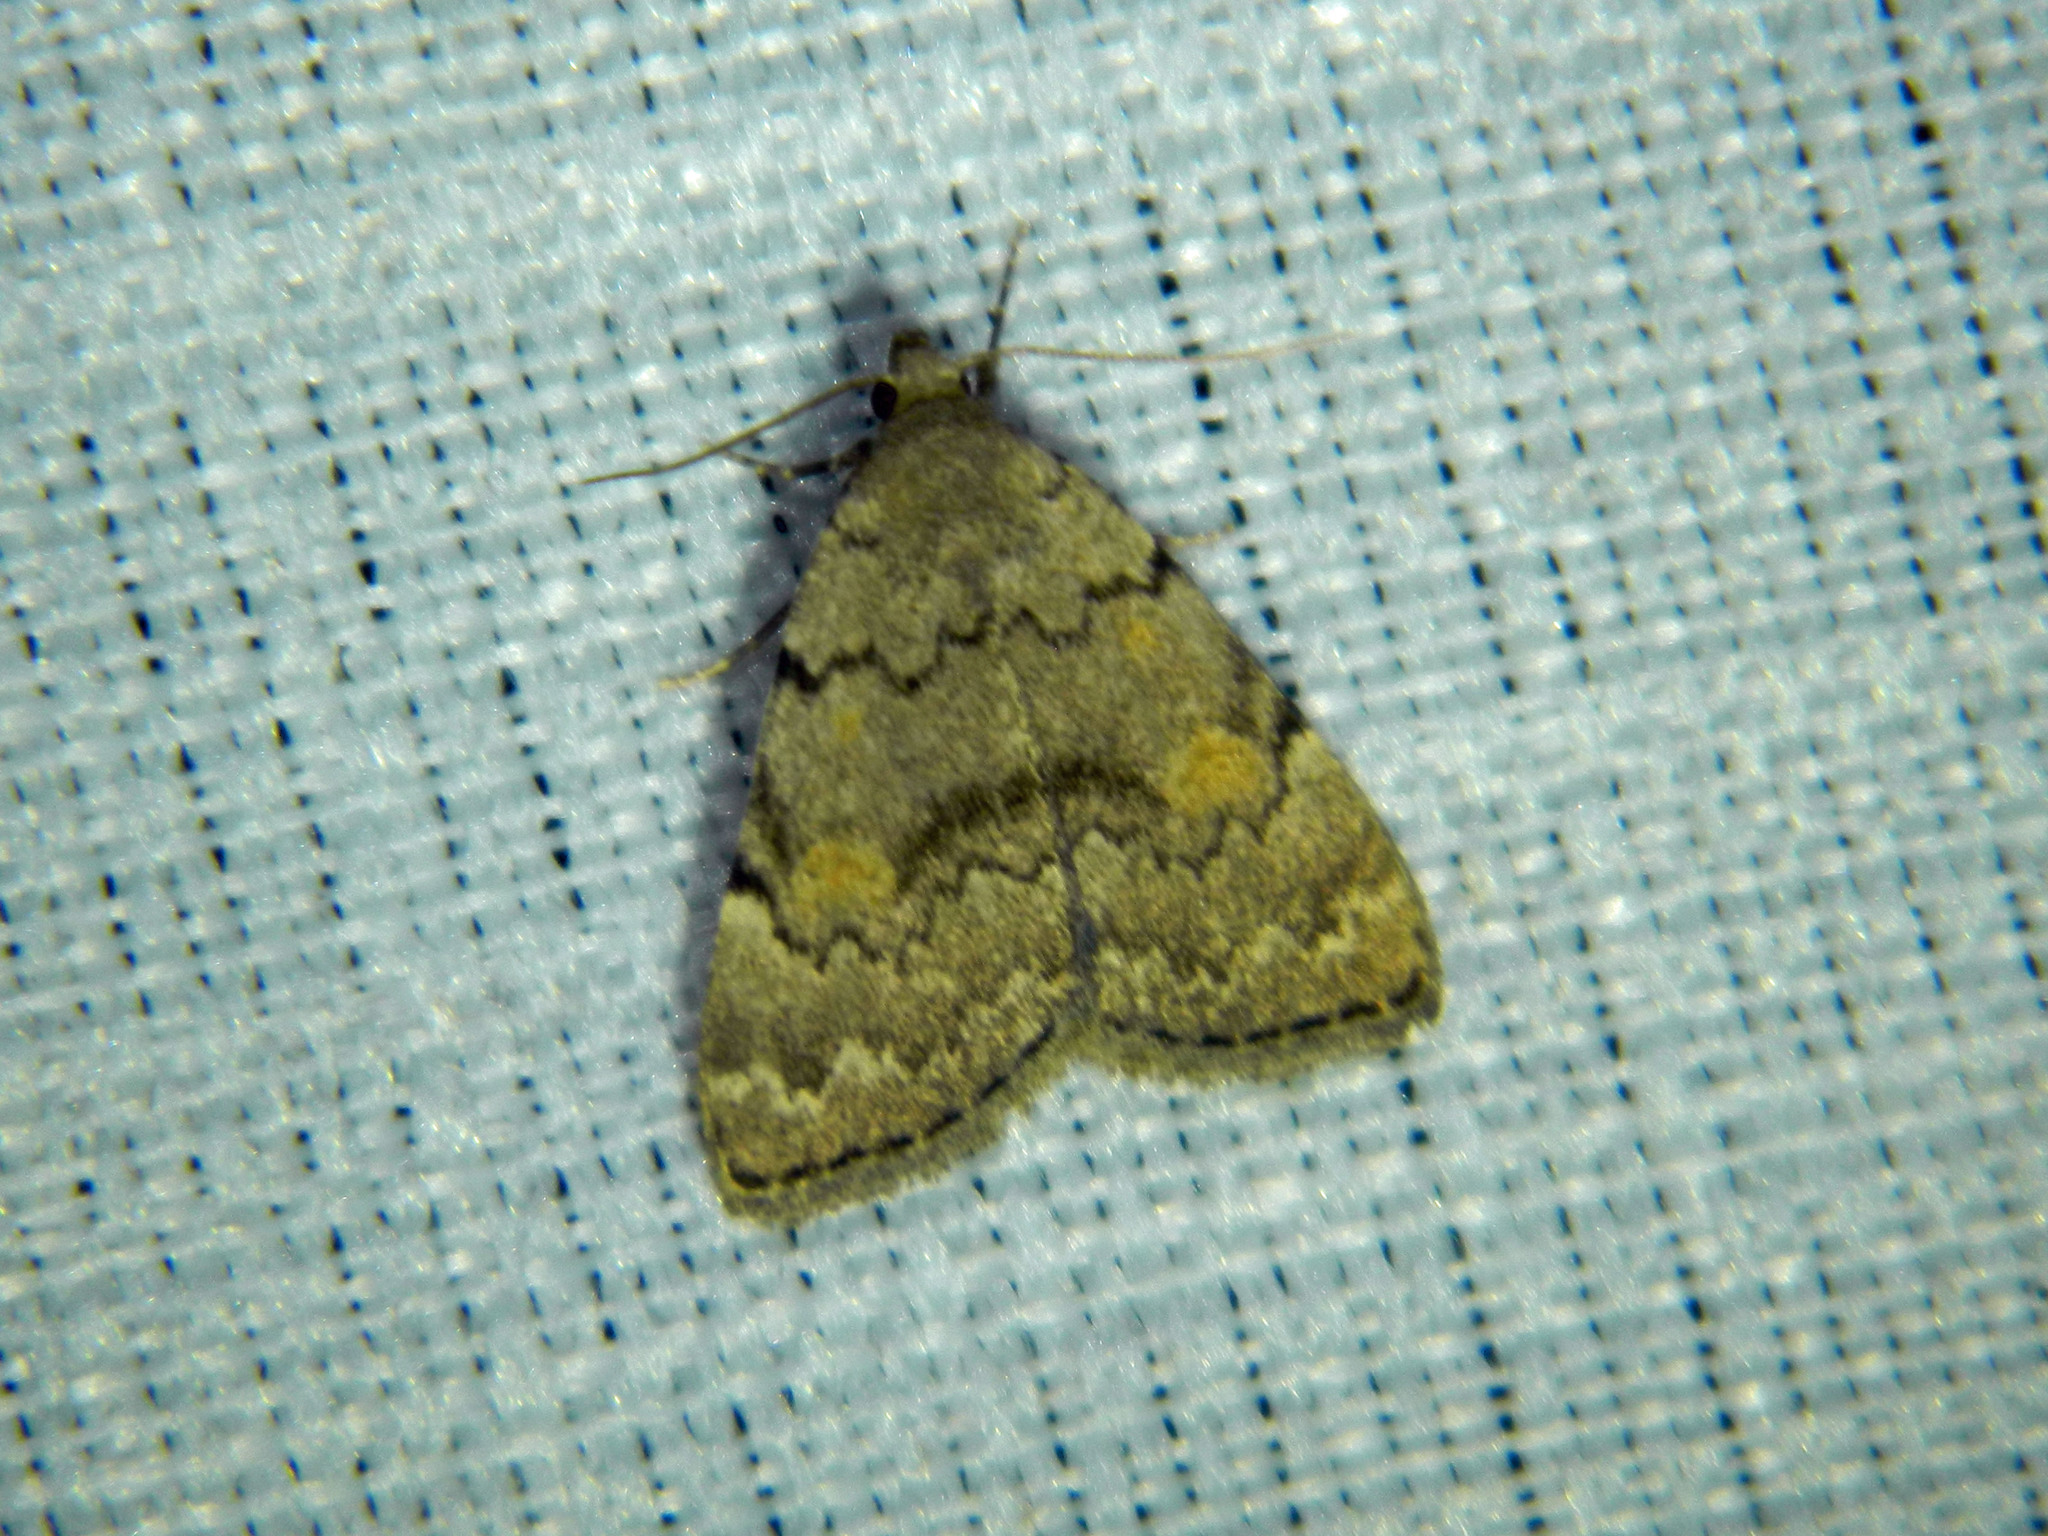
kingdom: Animalia
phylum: Arthropoda
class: Insecta
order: Lepidoptera
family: Erebidae
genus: Idia
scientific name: Idia aemula
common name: Common idia moth
